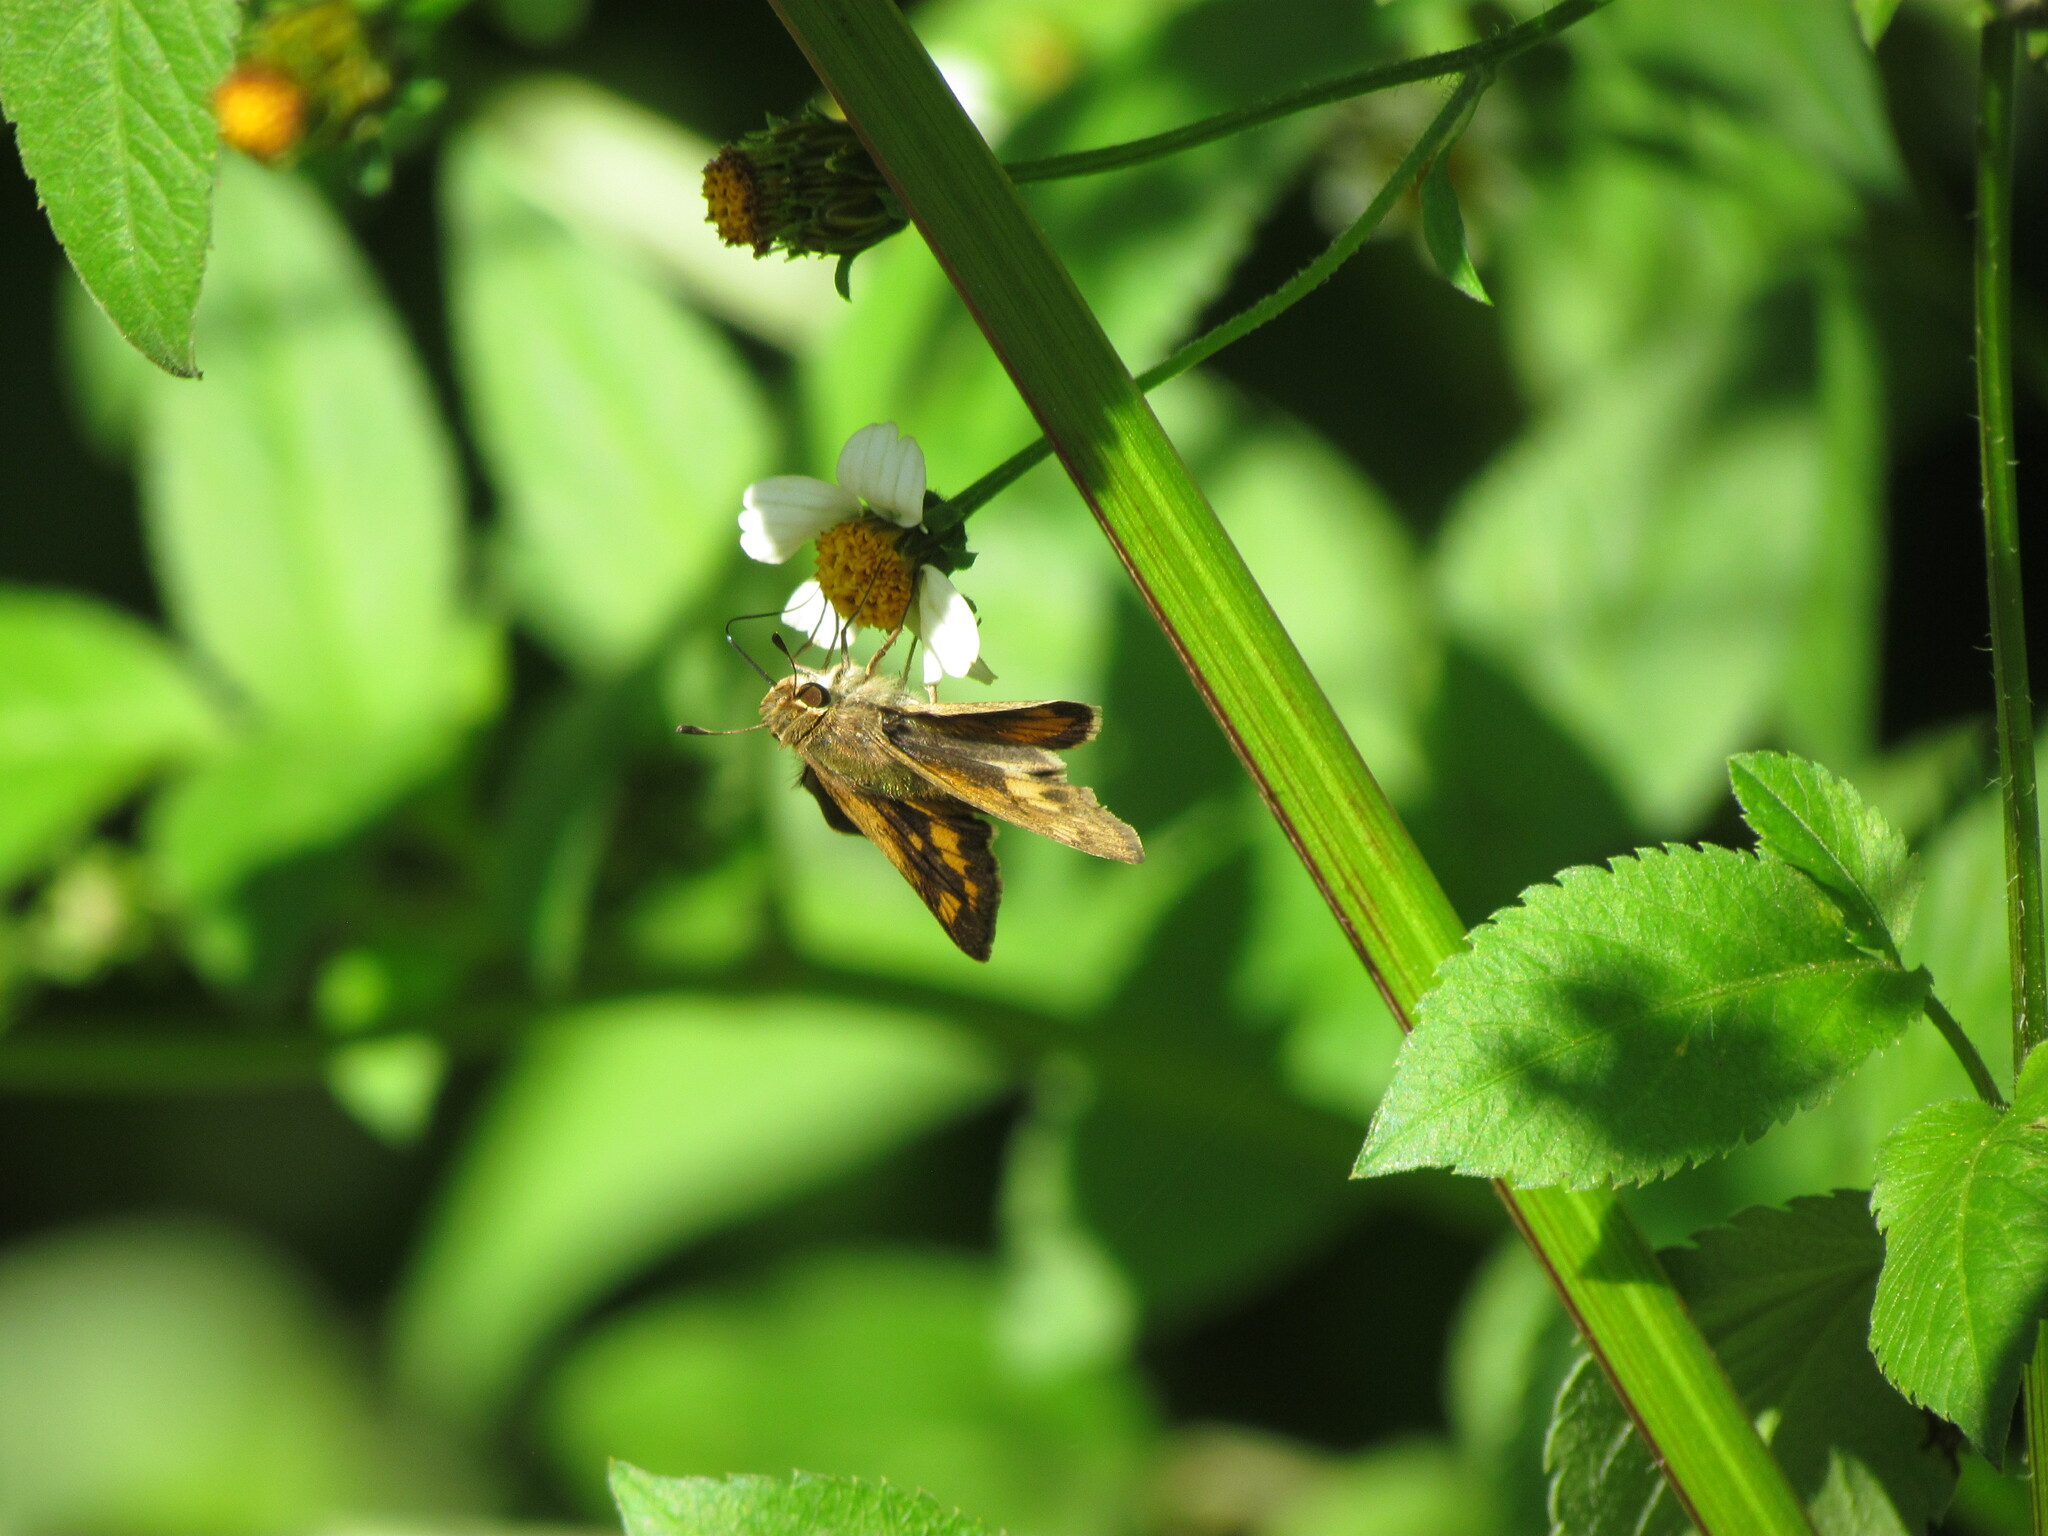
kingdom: Animalia
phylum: Arthropoda
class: Insecta
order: Lepidoptera
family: Hesperiidae
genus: Hylephila
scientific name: Hylephila phyleus
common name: Fiery skipper
